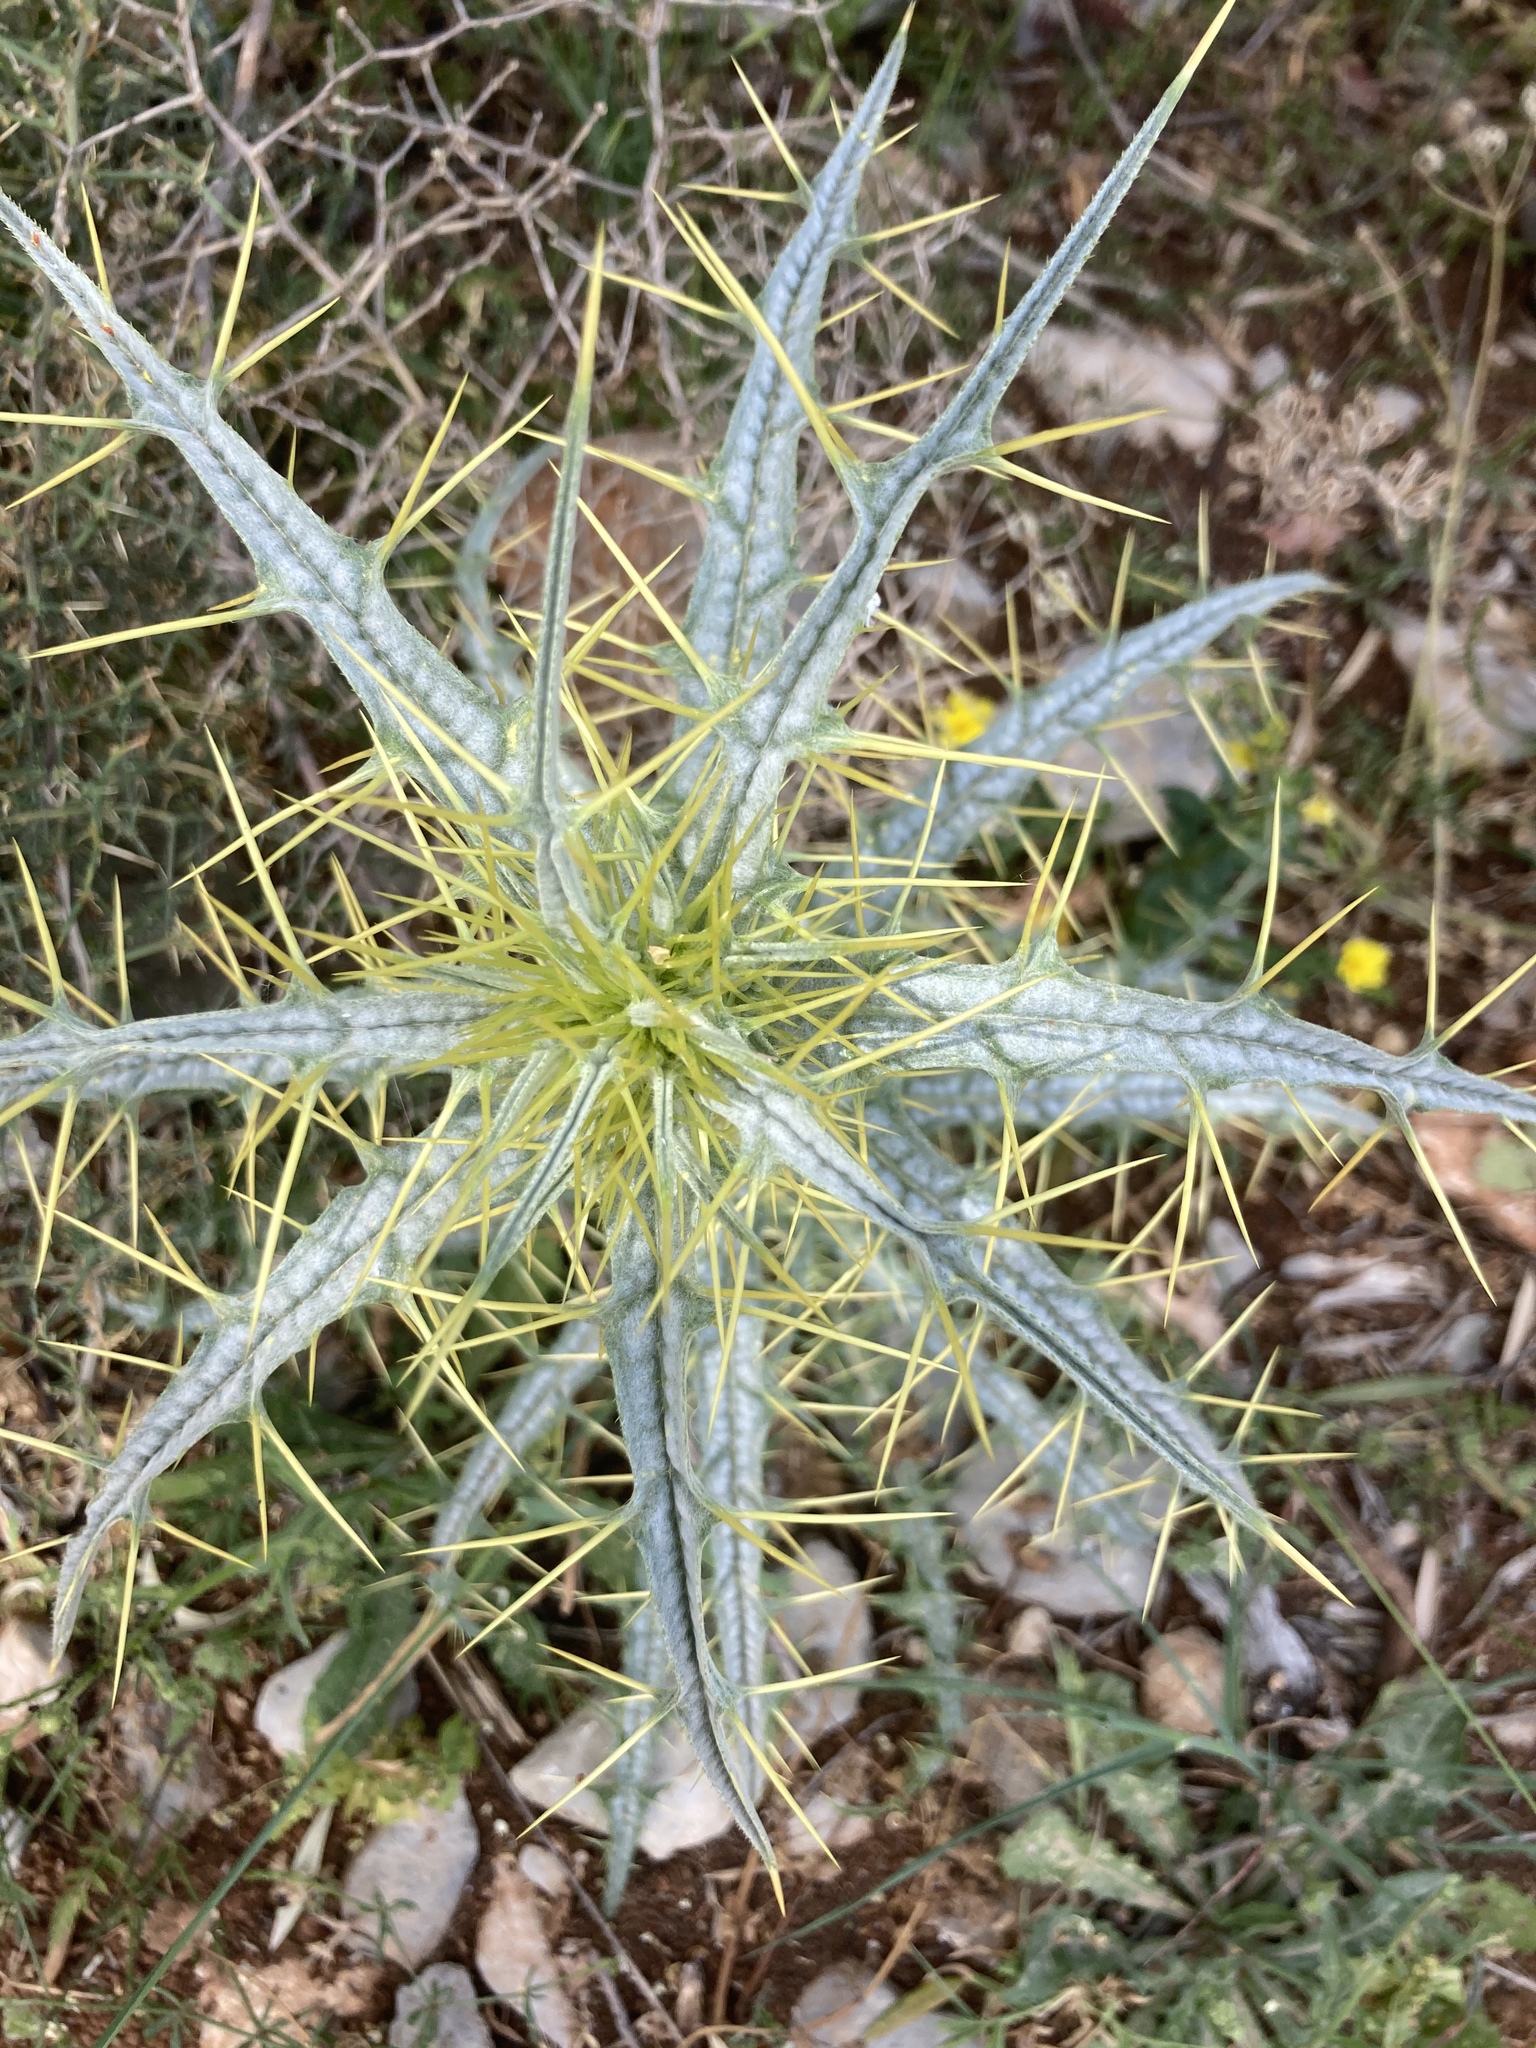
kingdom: Plantae
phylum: Tracheophyta
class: Magnoliopsida
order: Asterales
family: Asteraceae
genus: Picnomon
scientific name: Picnomon acarna
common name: Soldier thistle
